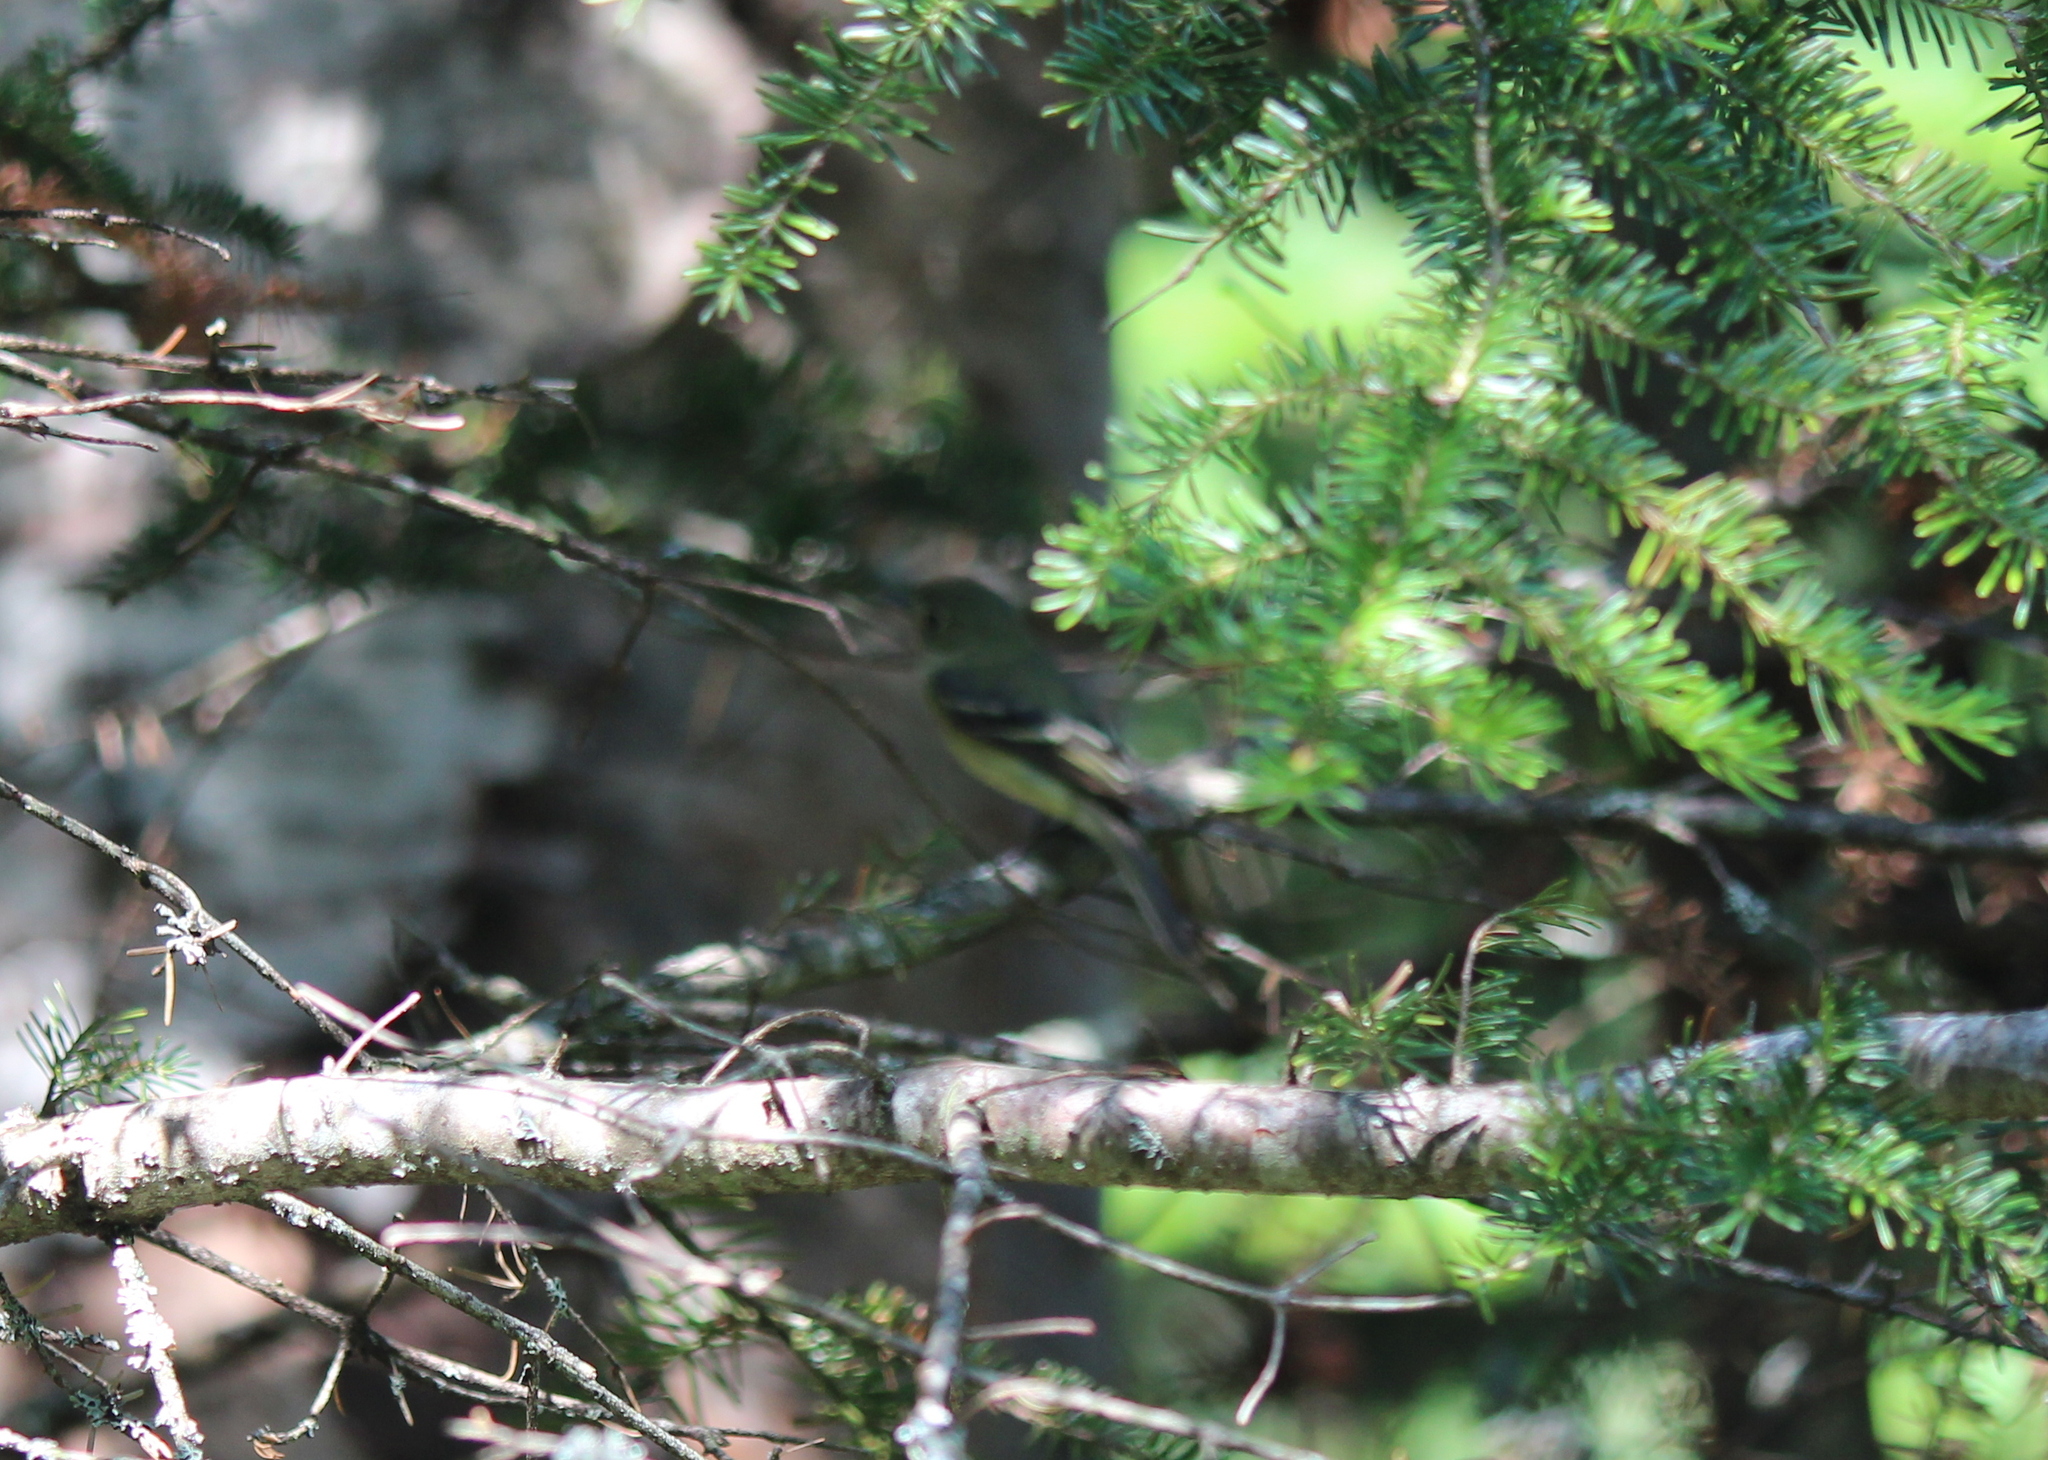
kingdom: Animalia
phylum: Chordata
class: Aves
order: Passeriformes
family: Tyrannidae
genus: Empidonax
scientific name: Empidonax flaviventris
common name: Yellow-bellied flycatcher
